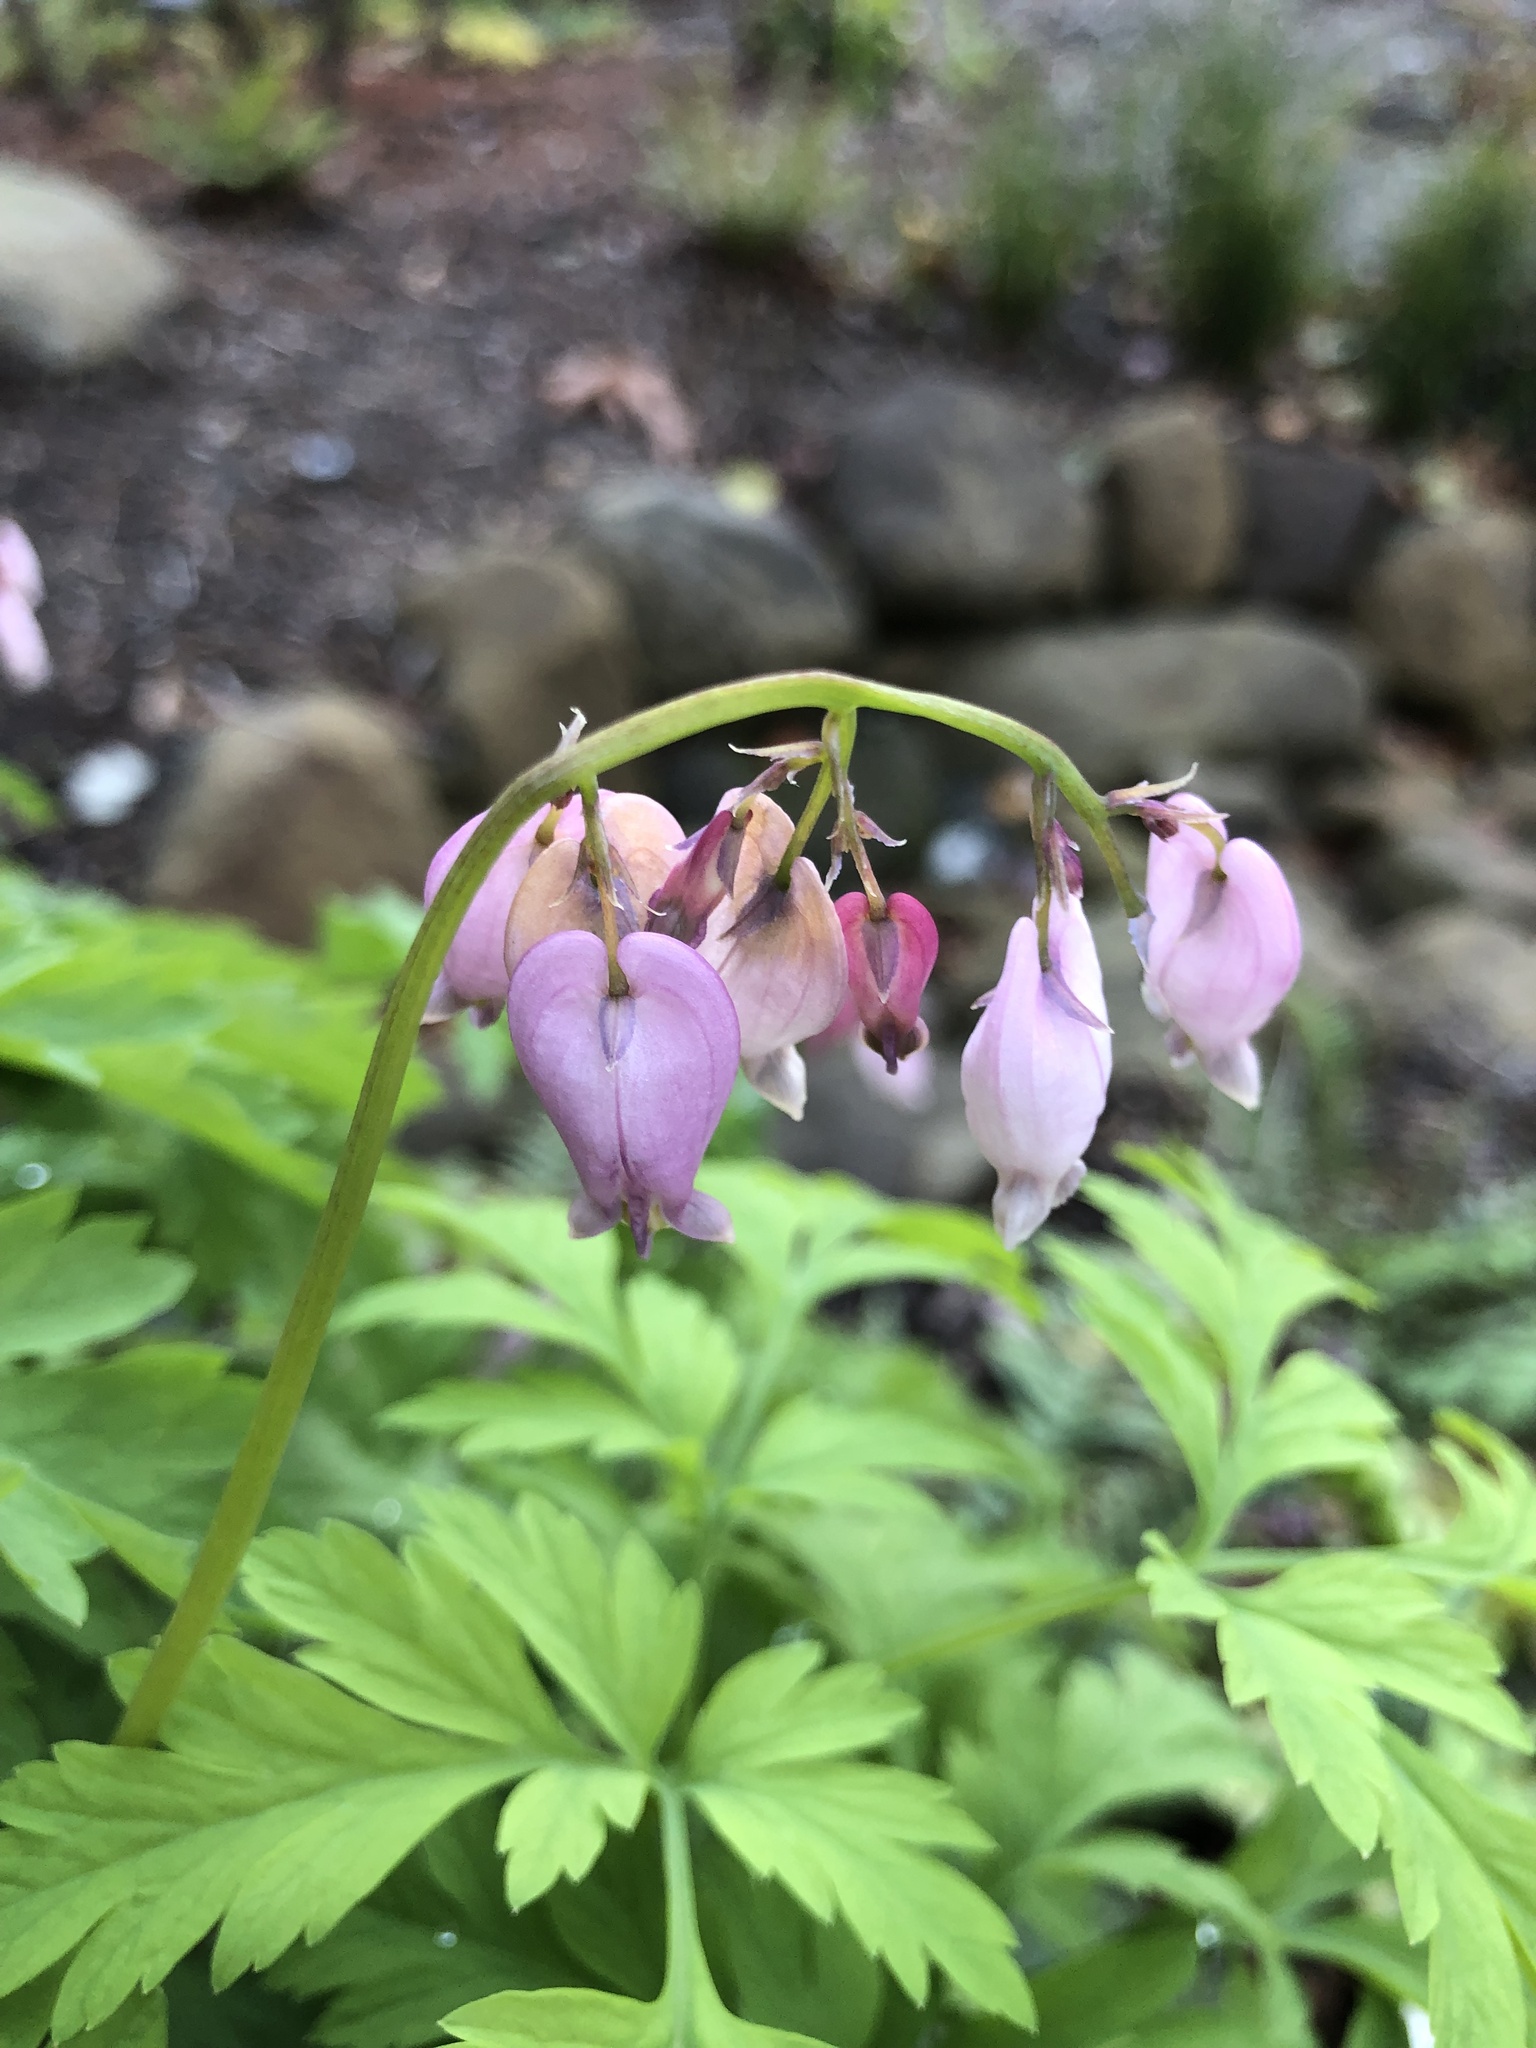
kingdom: Plantae
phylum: Tracheophyta
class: Magnoliopsida
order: Ranunculales
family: Papaveraceae
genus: Dicentra
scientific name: Dicentra formosa
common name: Bleeding-heart
